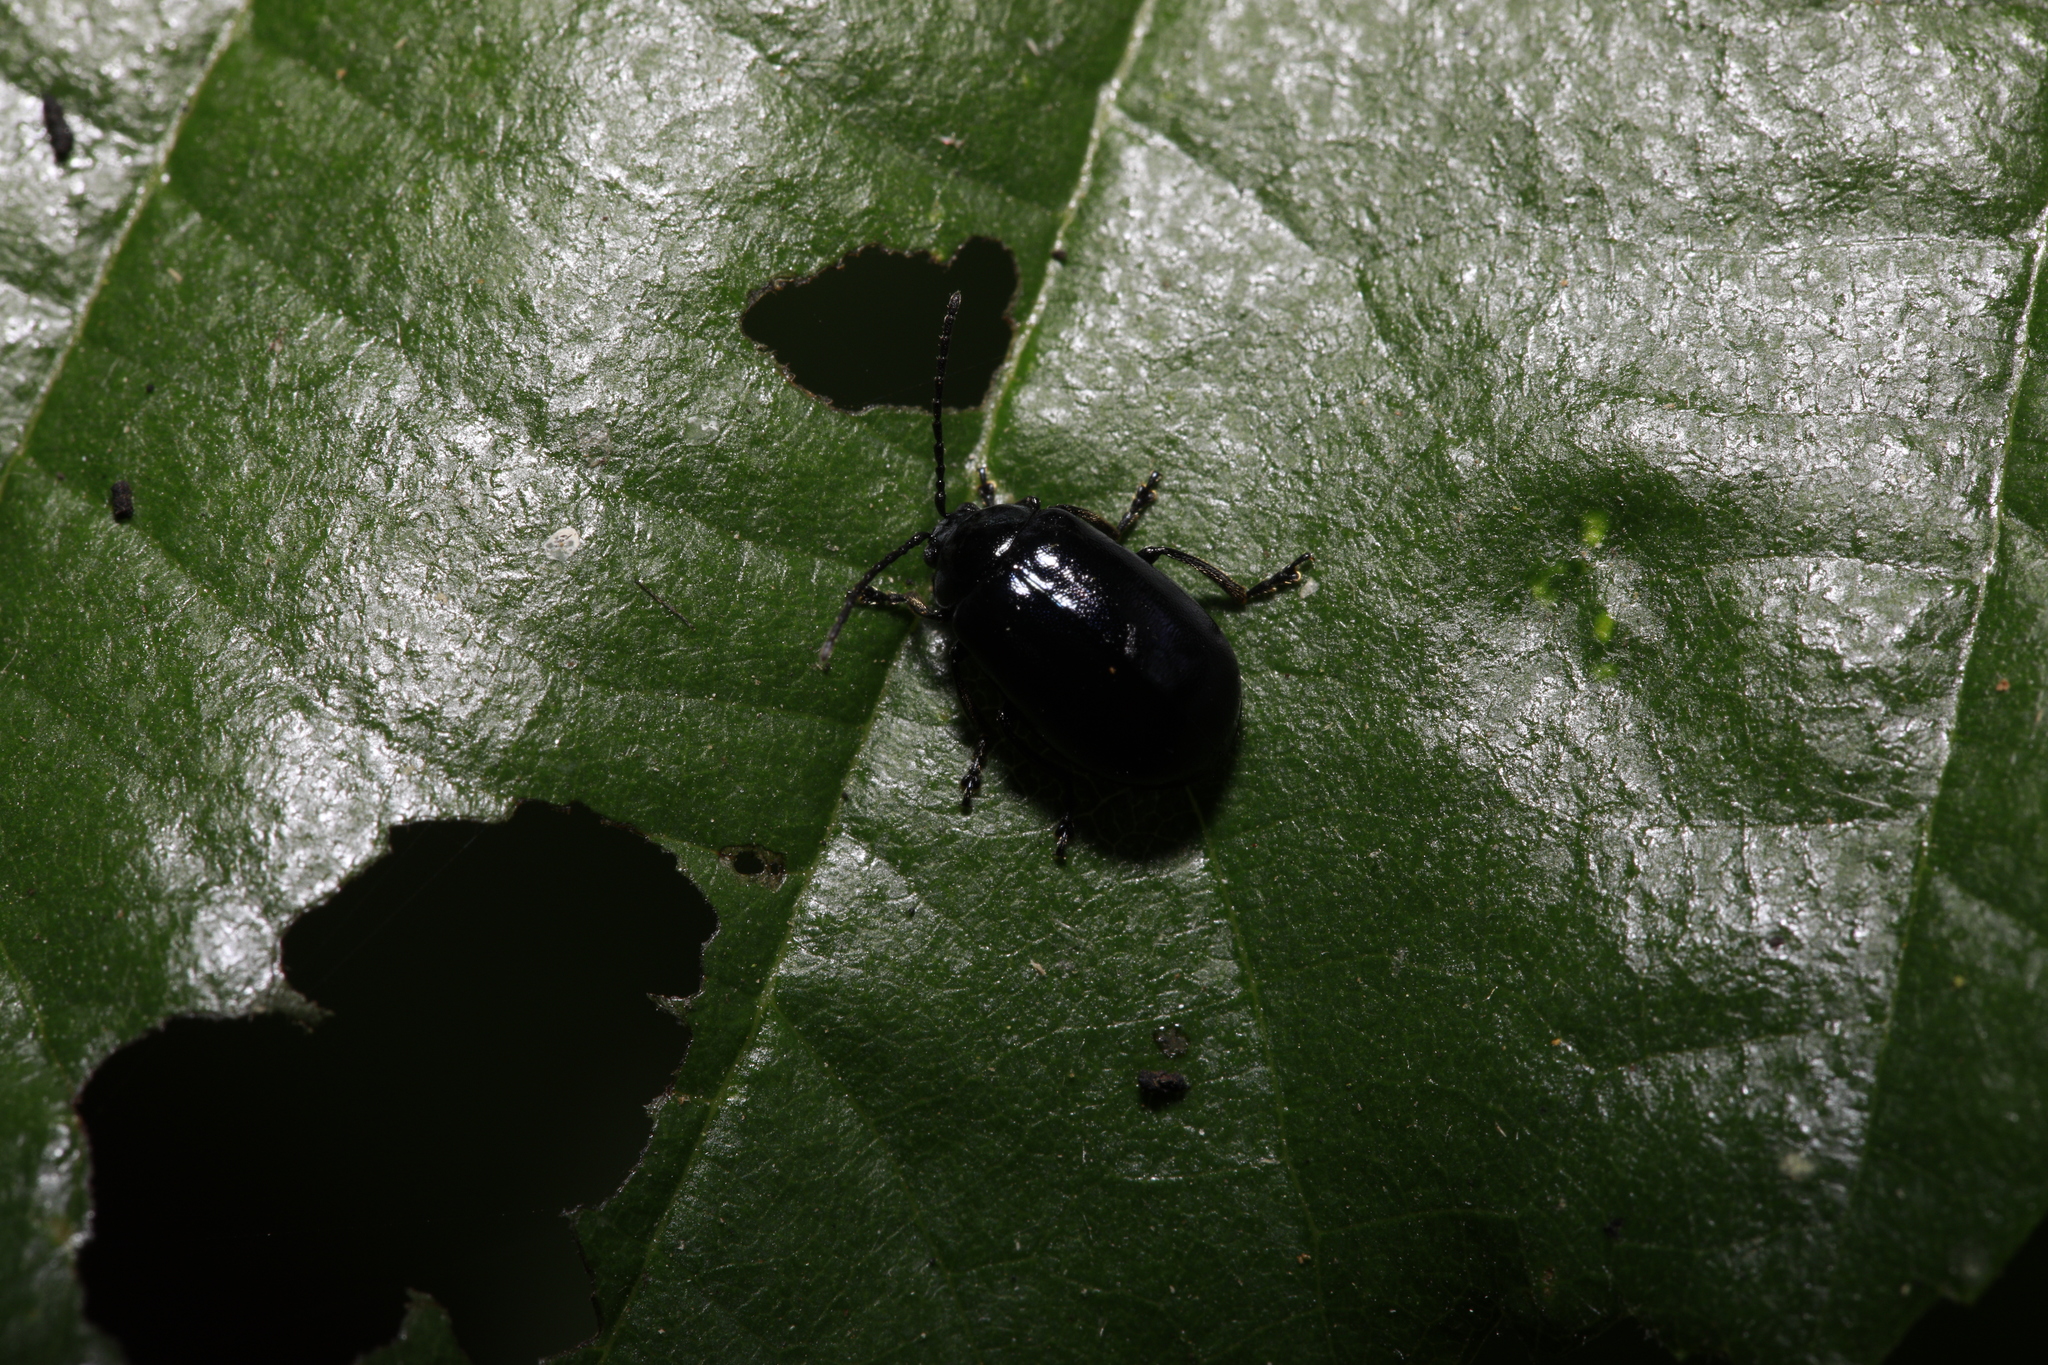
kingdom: Animalia
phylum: Arthropoda
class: Insecta
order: Coleoptera
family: Chrysomelidae
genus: Agelastica
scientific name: Agelastica alni
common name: Alder leaf beetle
